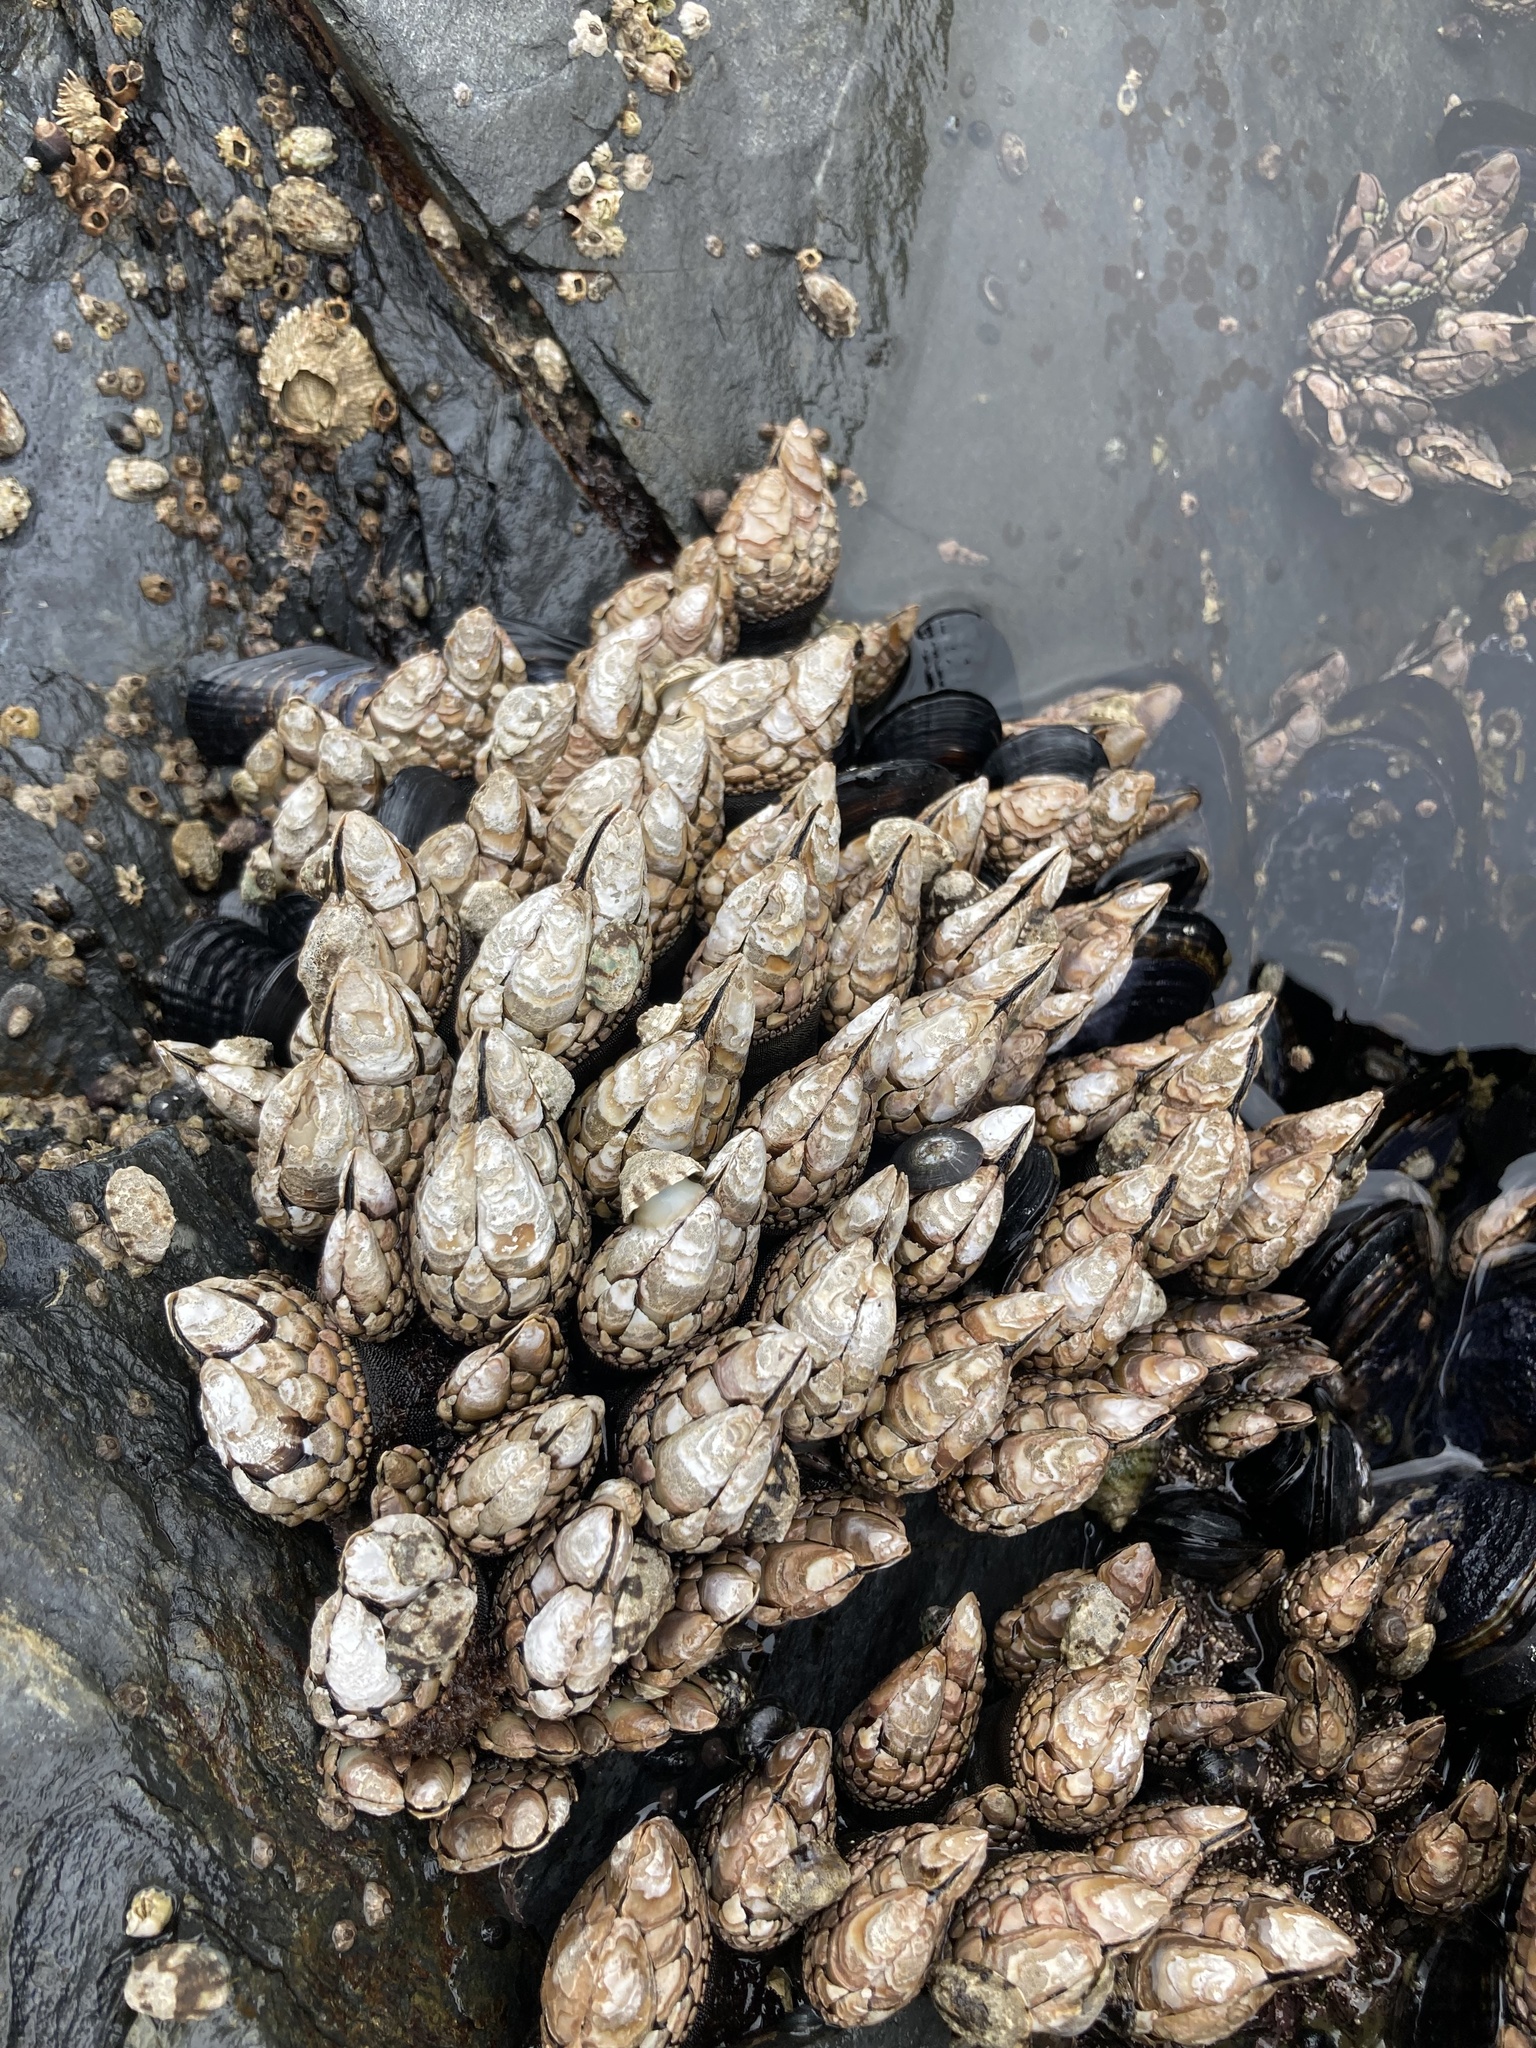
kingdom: Animalia
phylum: Arthropoda
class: Maxillopoda
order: Pedunculata
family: Pollicipedidae
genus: Pollicipes
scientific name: Pollicipes polymerus
